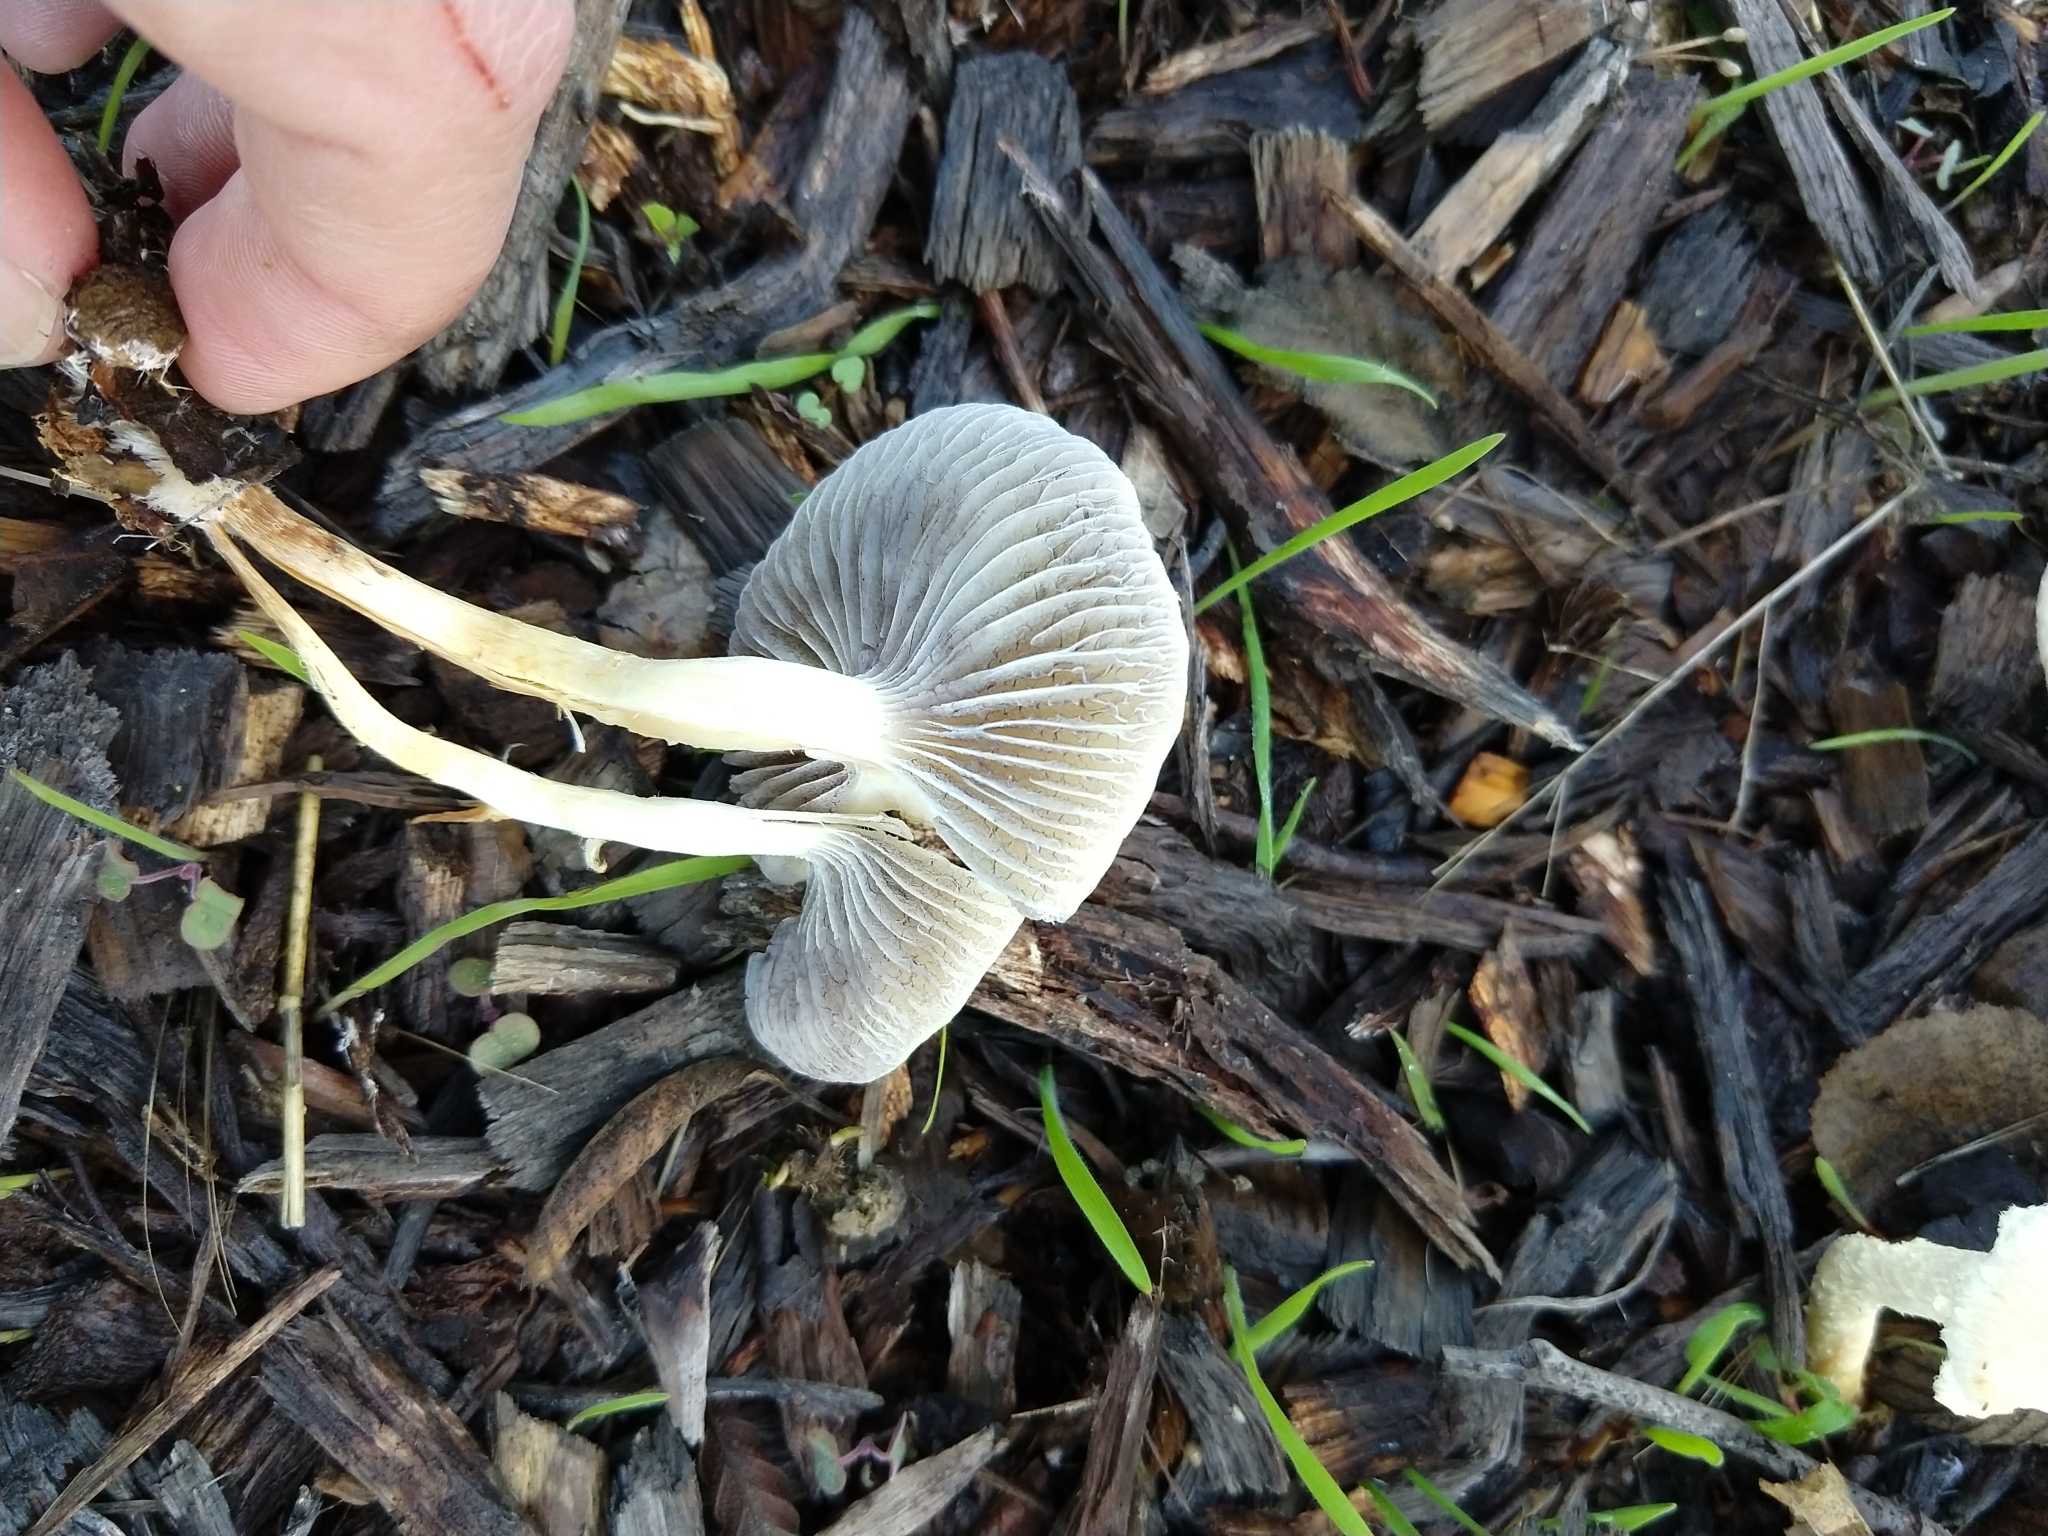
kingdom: Fungi
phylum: Basidiomycota
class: Agaricomycetes
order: Agaricales
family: Strophariaceae
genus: Leratiomyces
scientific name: Leratiomyces percevalii
